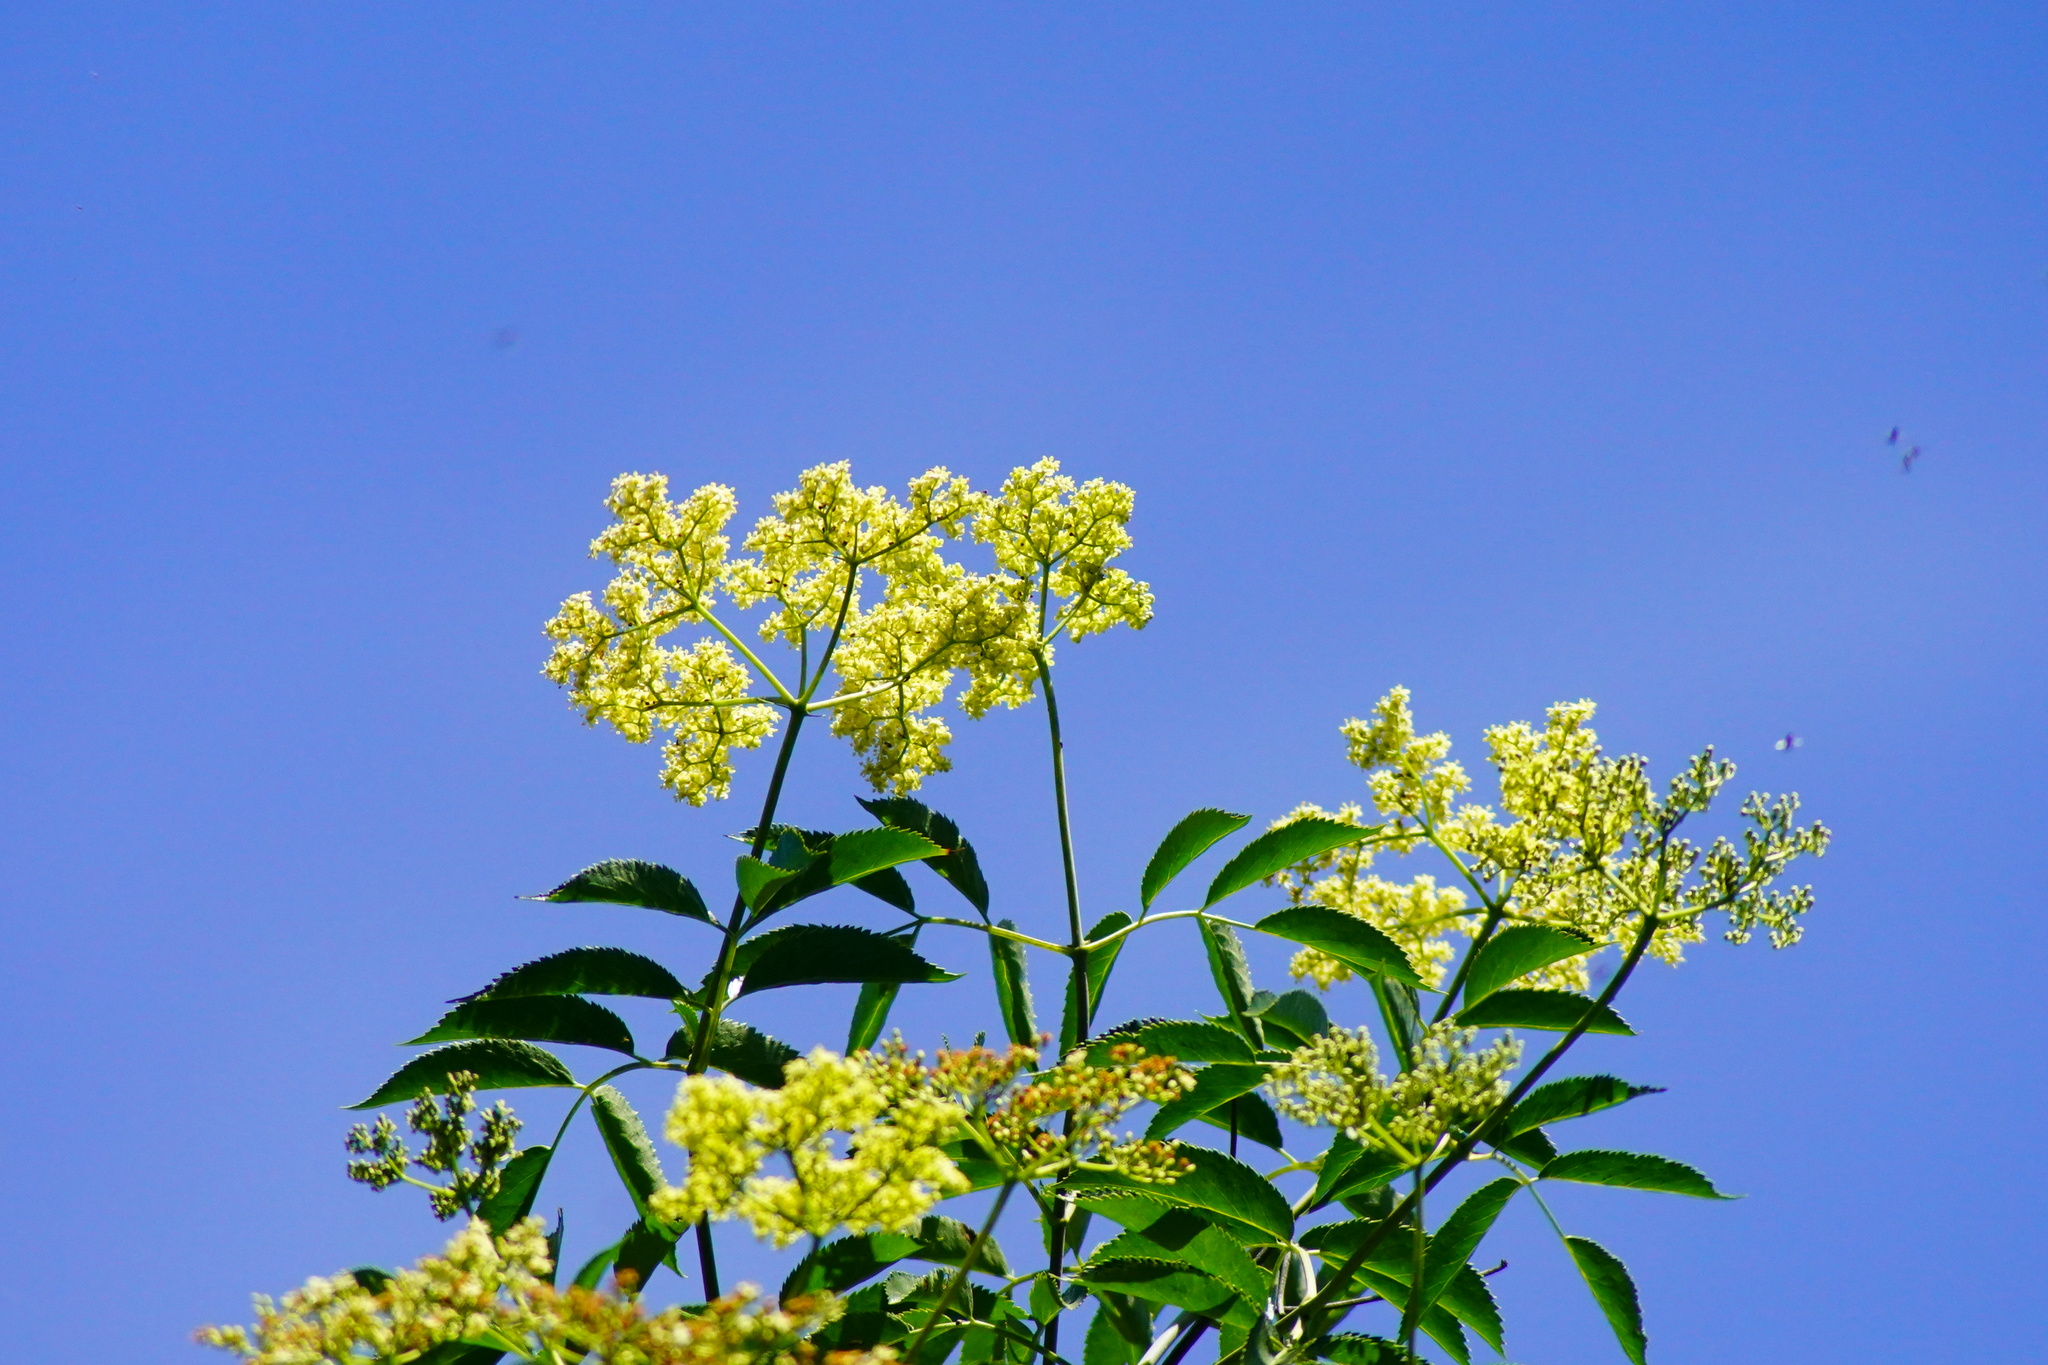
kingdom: Plantae
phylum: Tracheophyta
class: Magnoliopsida
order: Dipsacales
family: Viburnaceae
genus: Sambucus
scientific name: Sambucus cerulea
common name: Blue elder
